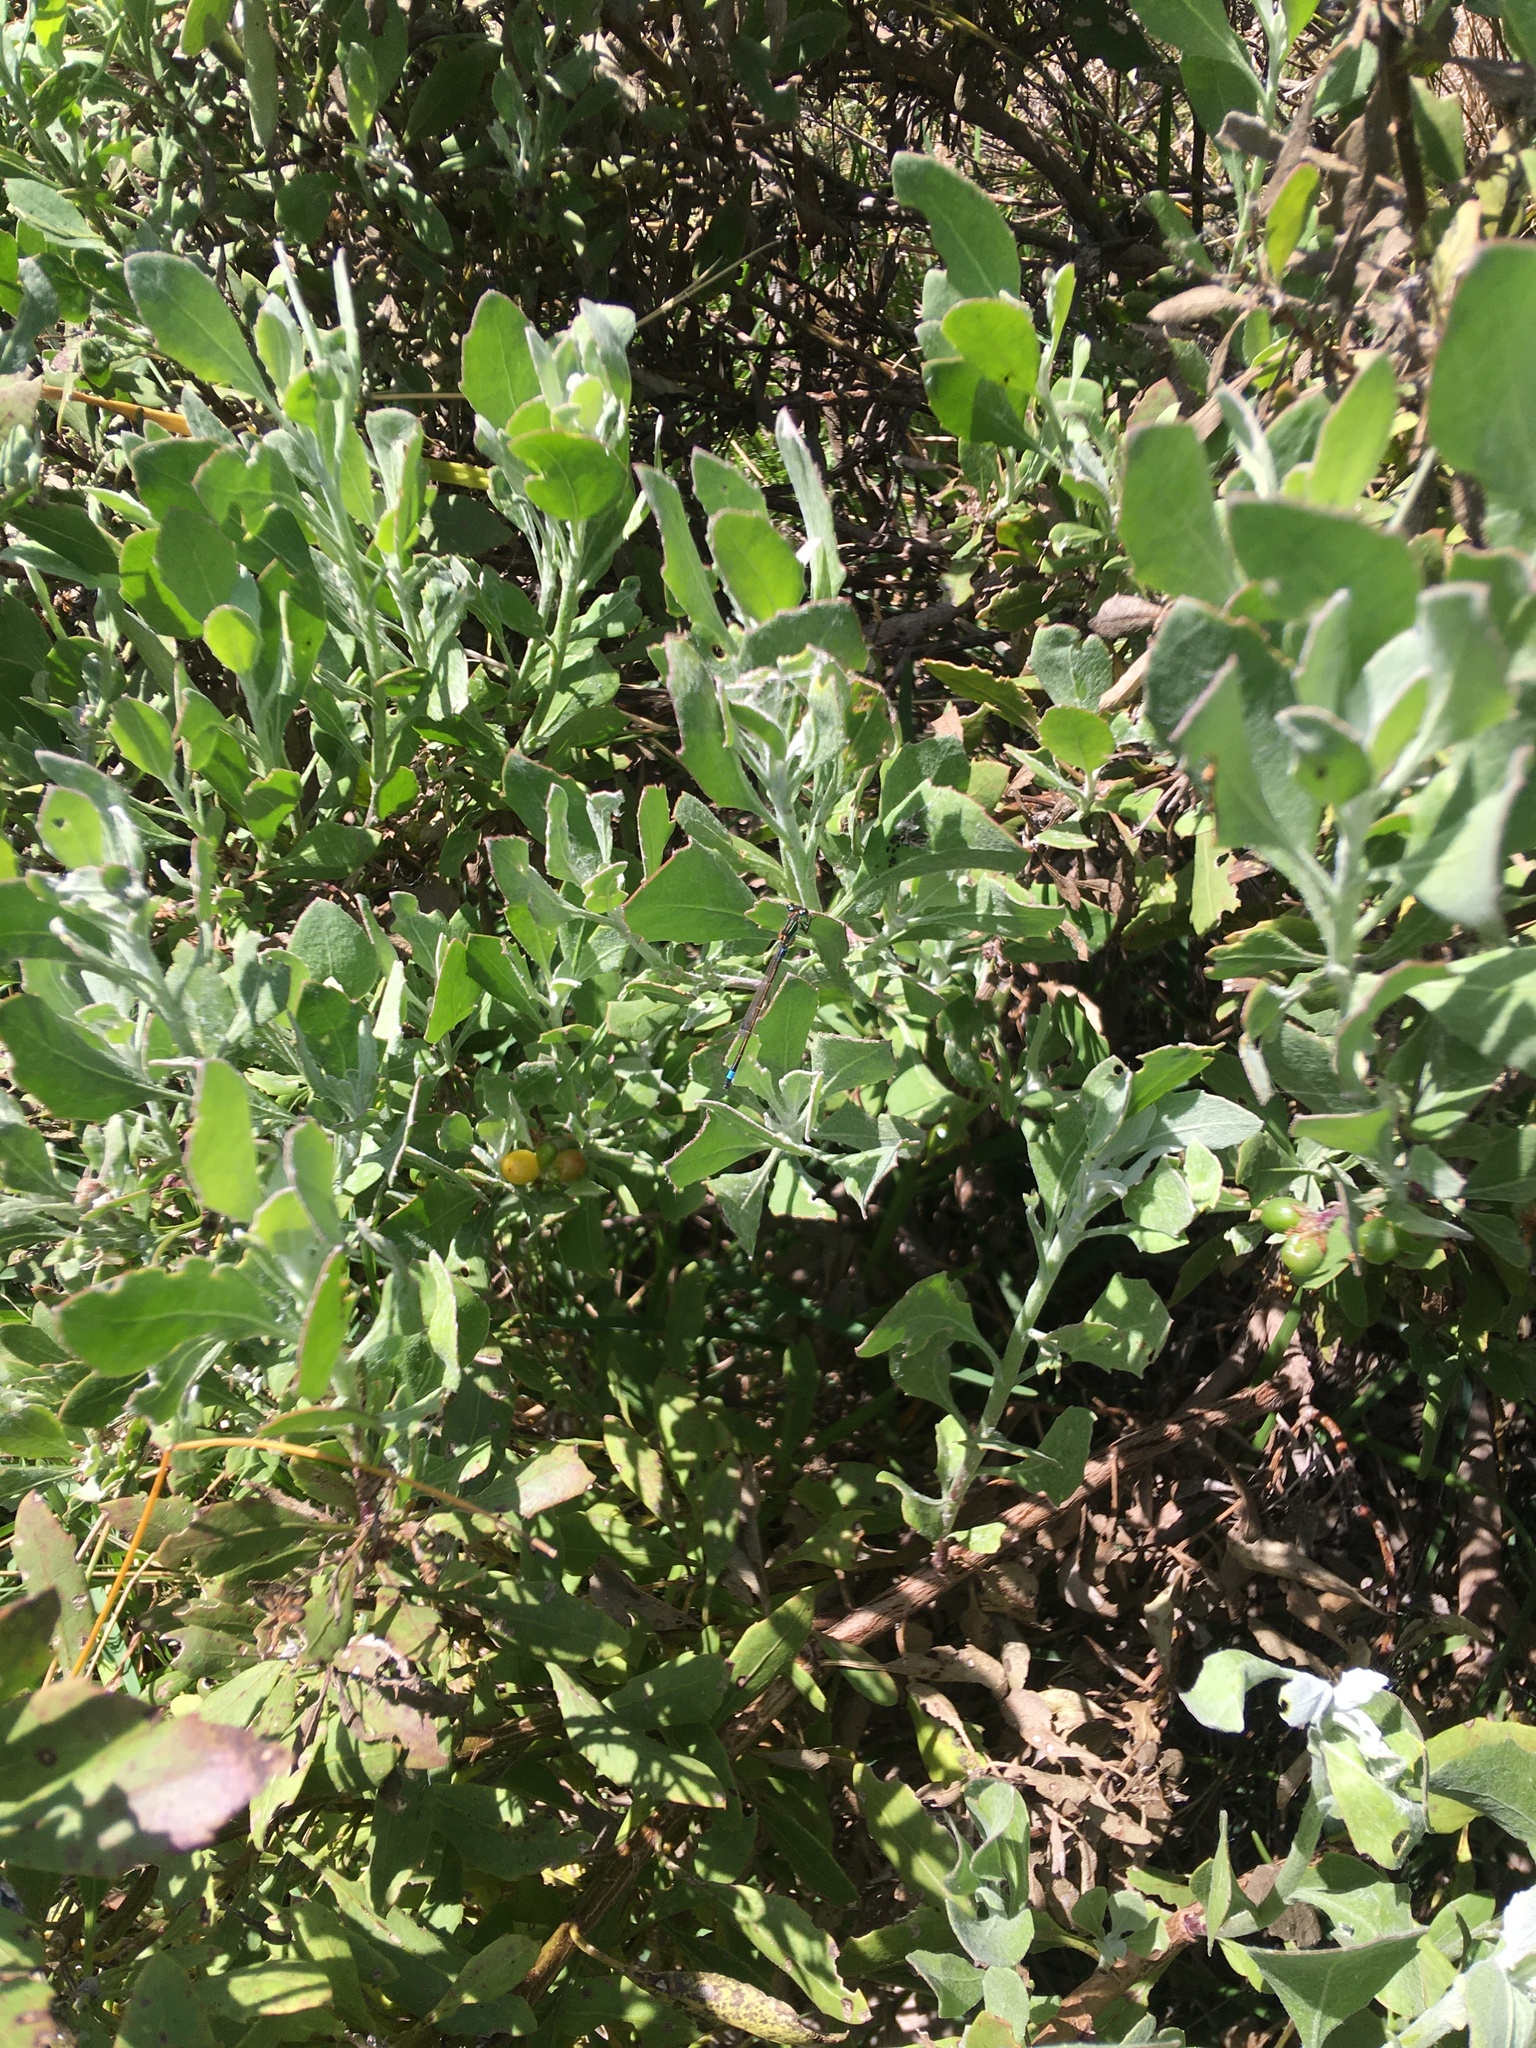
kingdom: Animalia
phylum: Arthropoda
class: Insecta
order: Odonata
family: Coenagrionidae
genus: Ischnura
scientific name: Ischnura senegalensis
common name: Tropical bluetail
